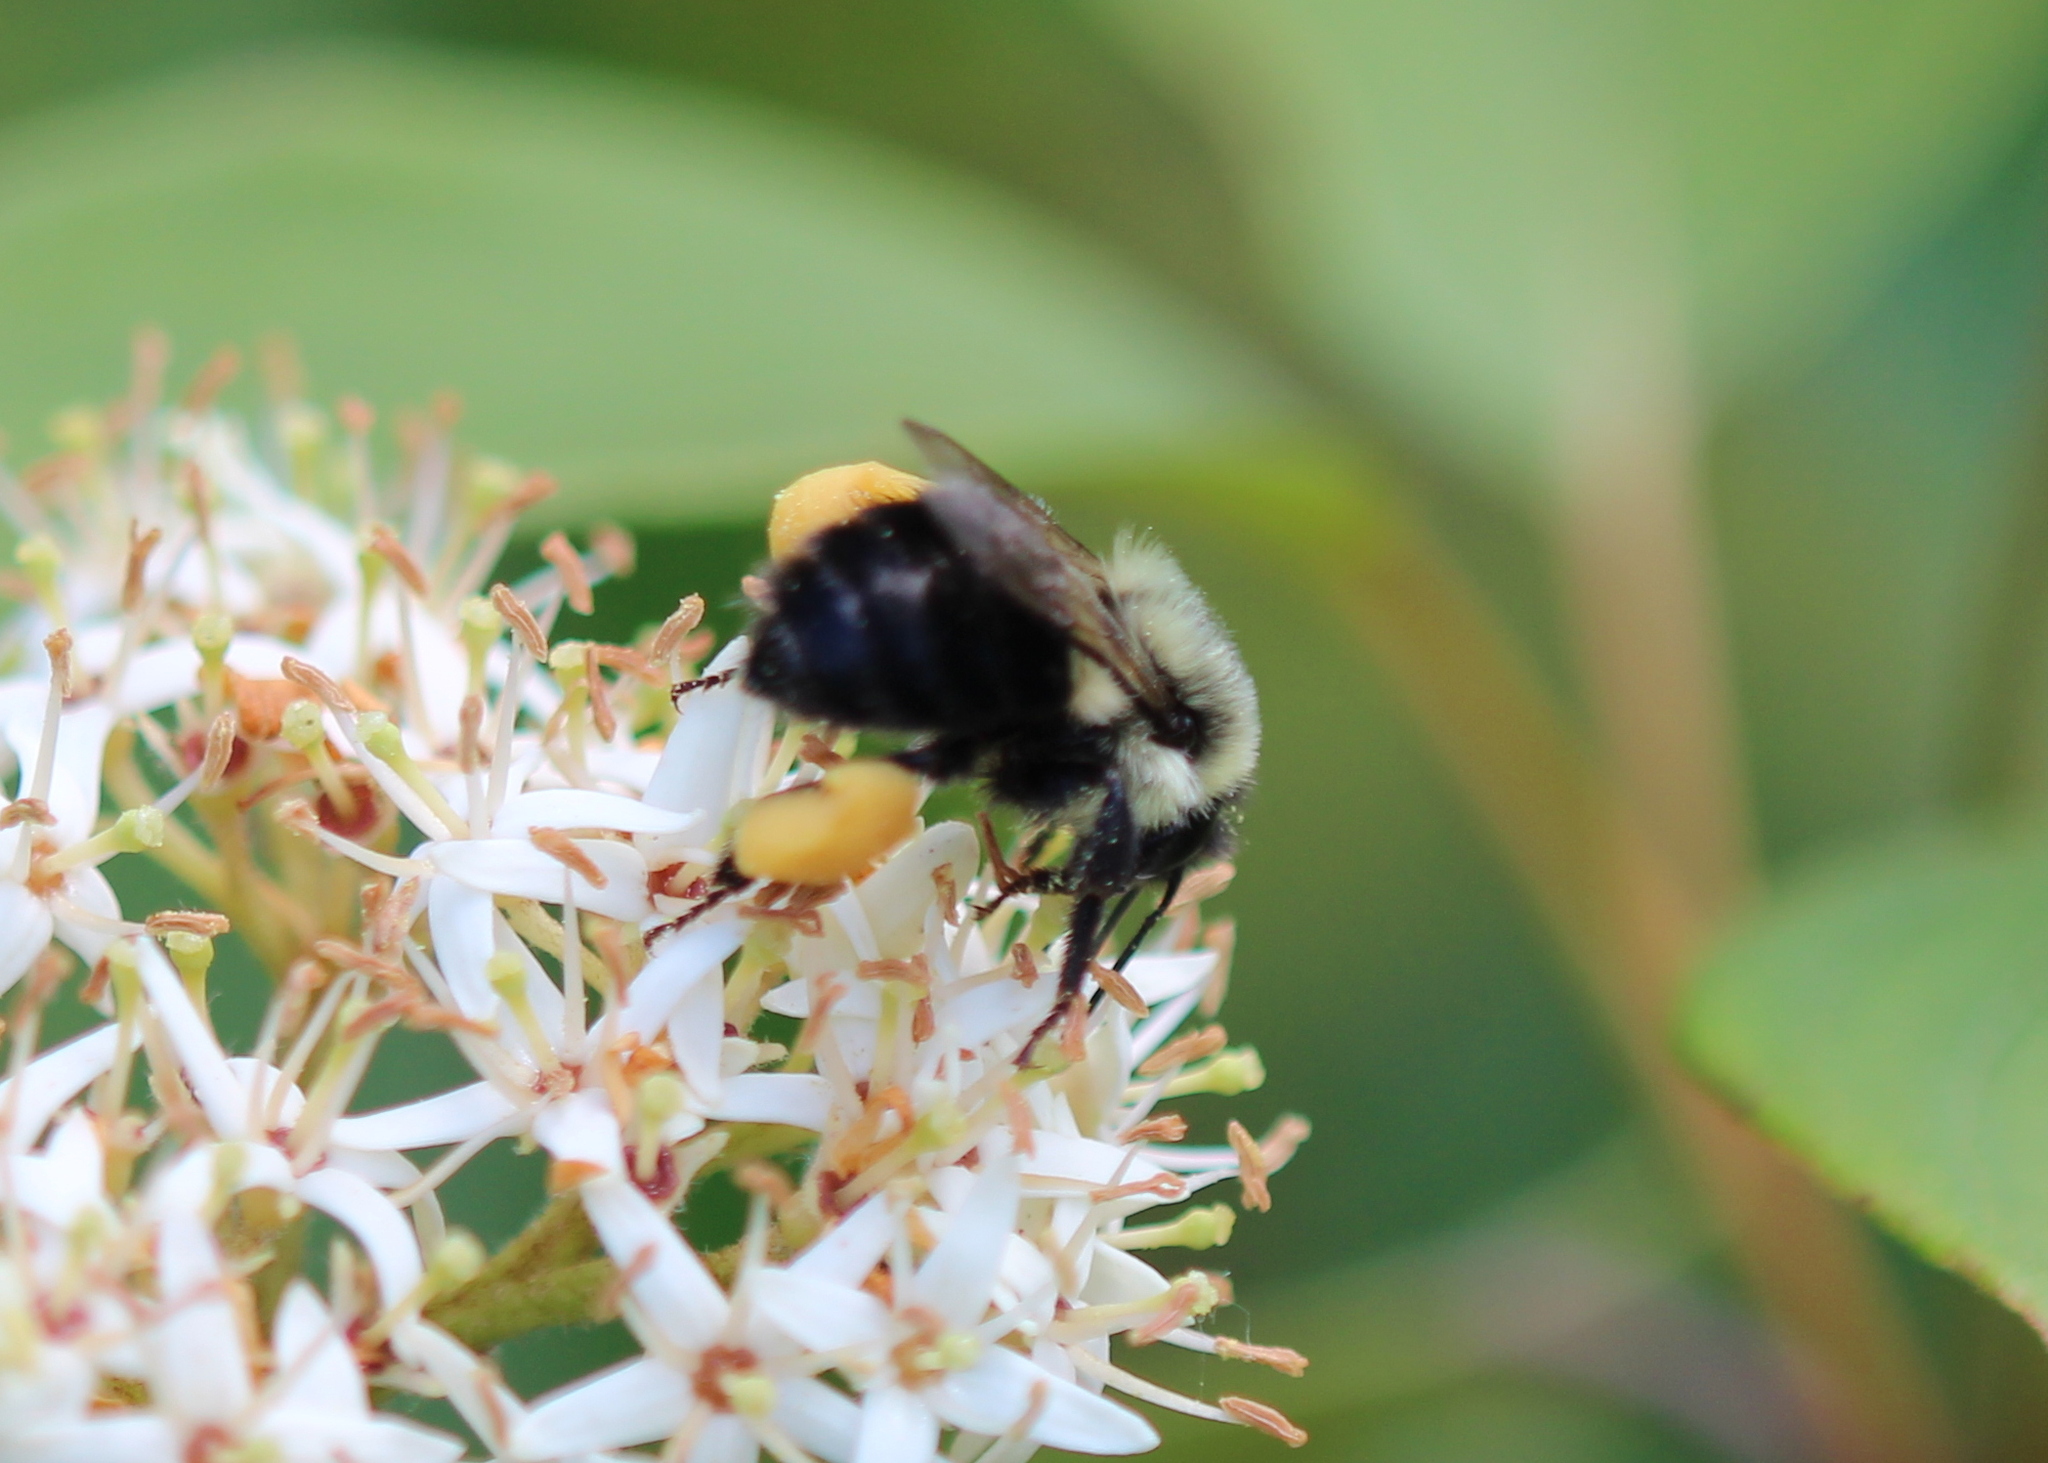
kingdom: Animalia
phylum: Arthropoda
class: Insecta
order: Hymenoptera
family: Apidae
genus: Bombus
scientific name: Bombus impatiens
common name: Common eastern bumble bee
